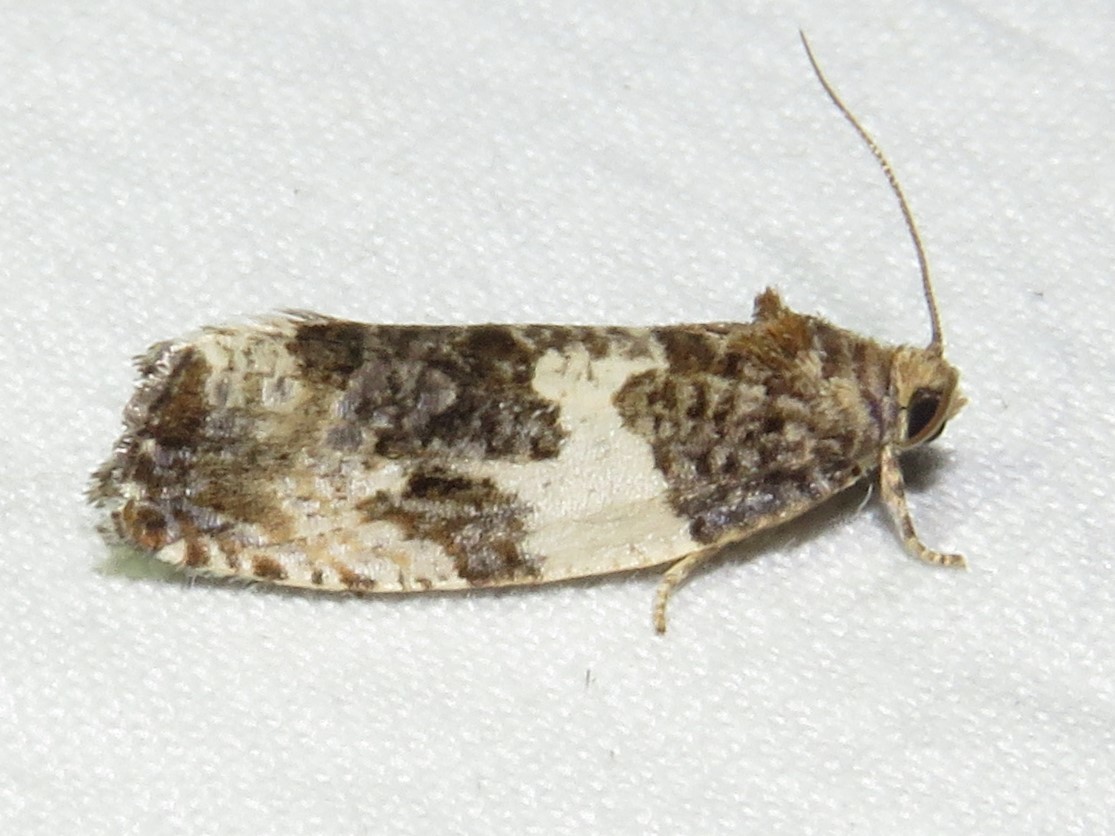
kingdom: Animalia
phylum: Arthropoda
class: Insecta
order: Lepidoptera
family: Tortricidae
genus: Pseudosciaphila
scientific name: Pseudosciaphila duplex
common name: Poplar leafroller moth
